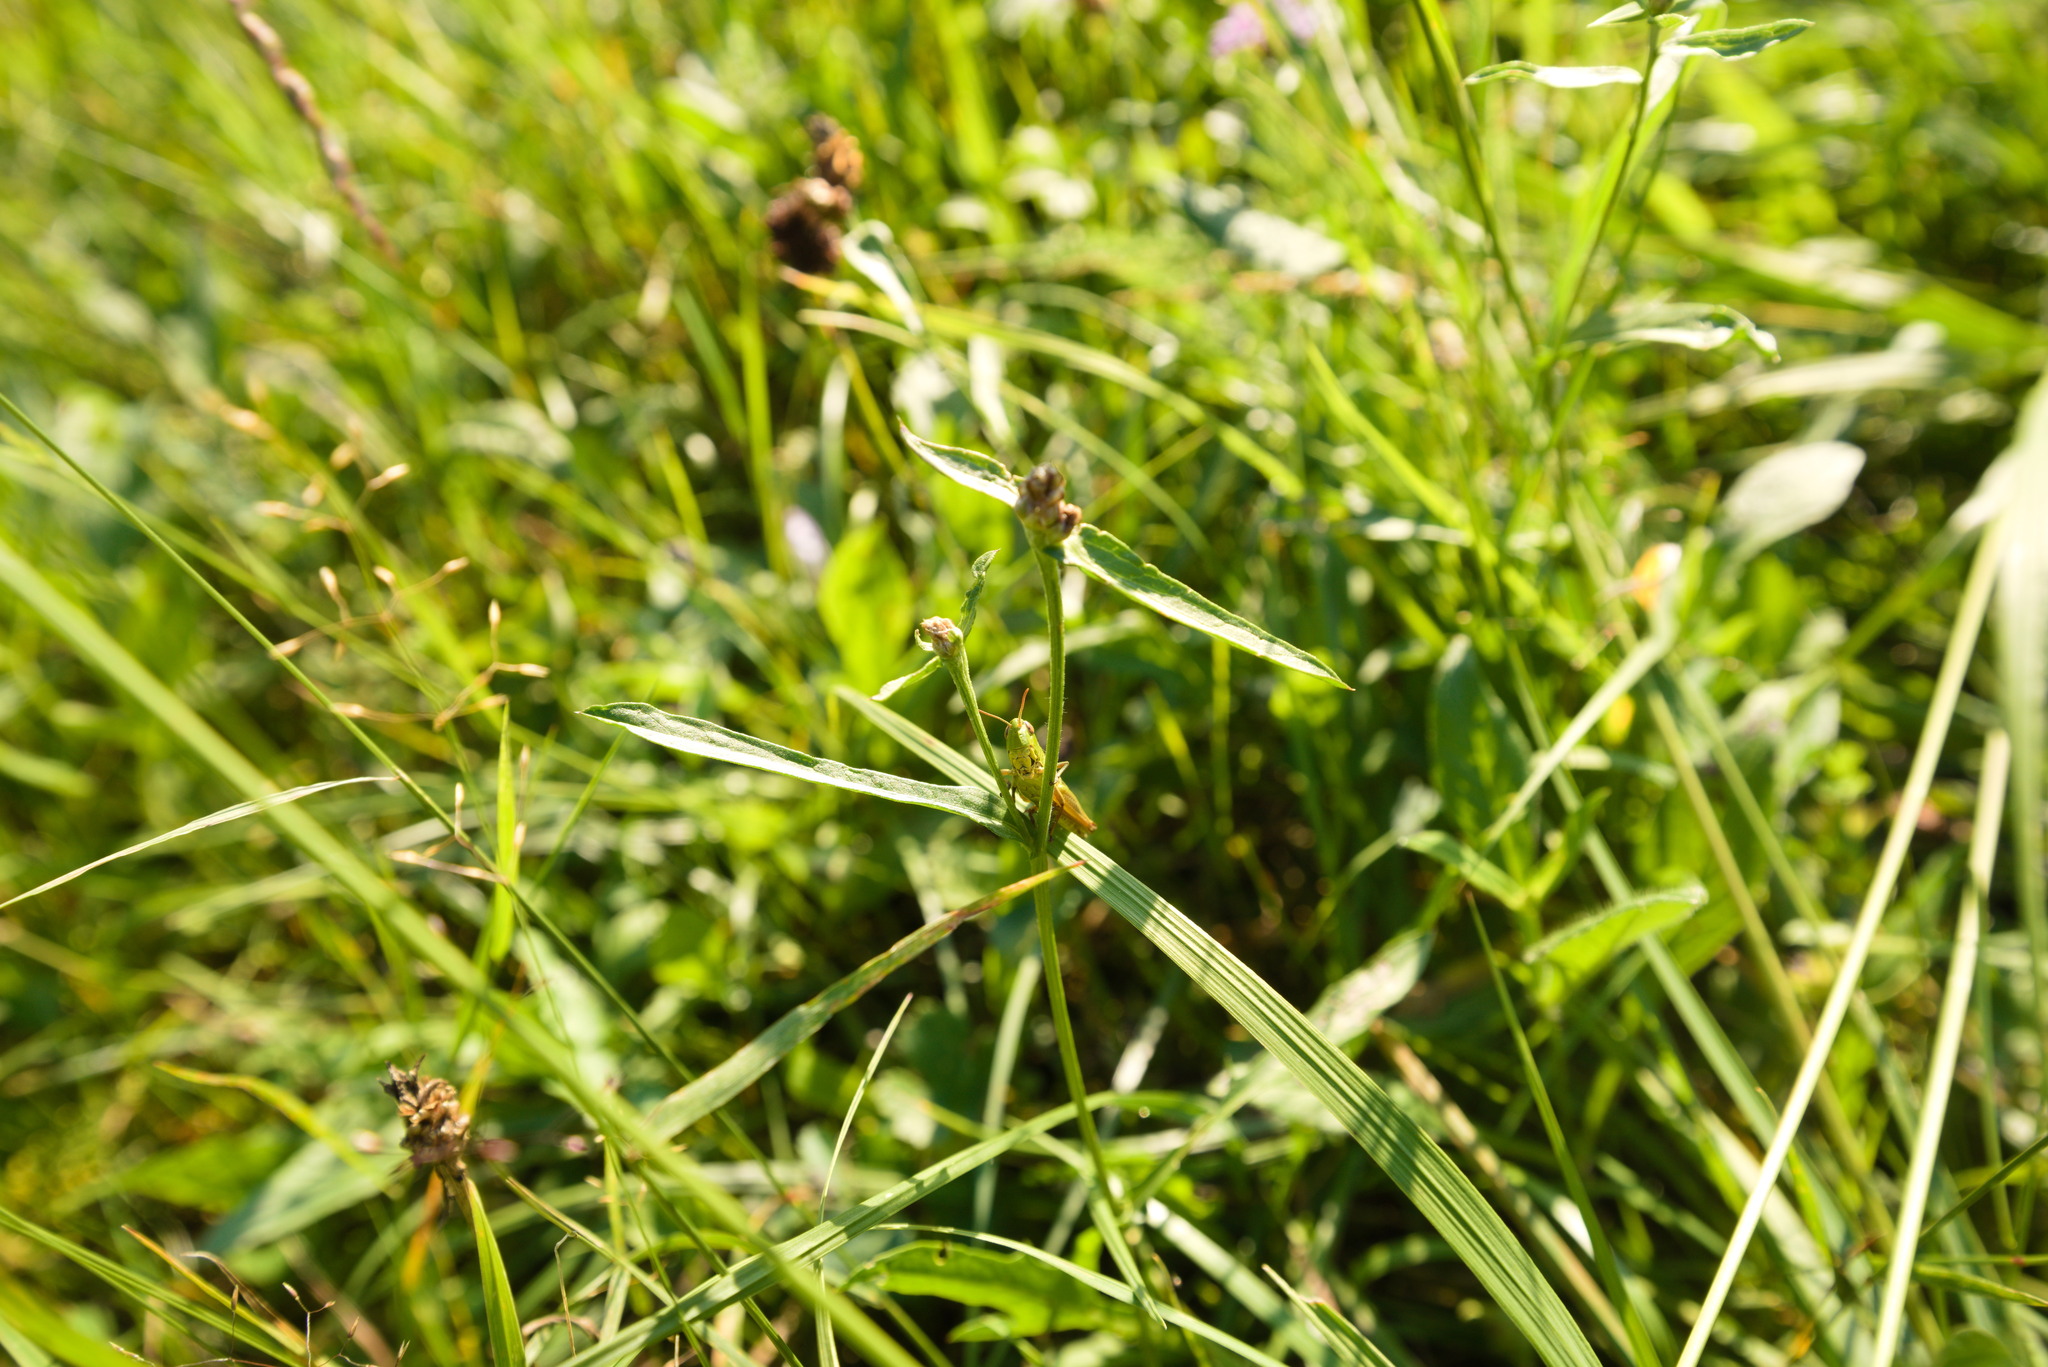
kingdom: Animalia
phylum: Arthropoda
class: Insecta
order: Orthoptera
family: Acrididae
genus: Pseudochorthippus
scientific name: Pseudochorthippus parallelus
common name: Meadow grasshopper
